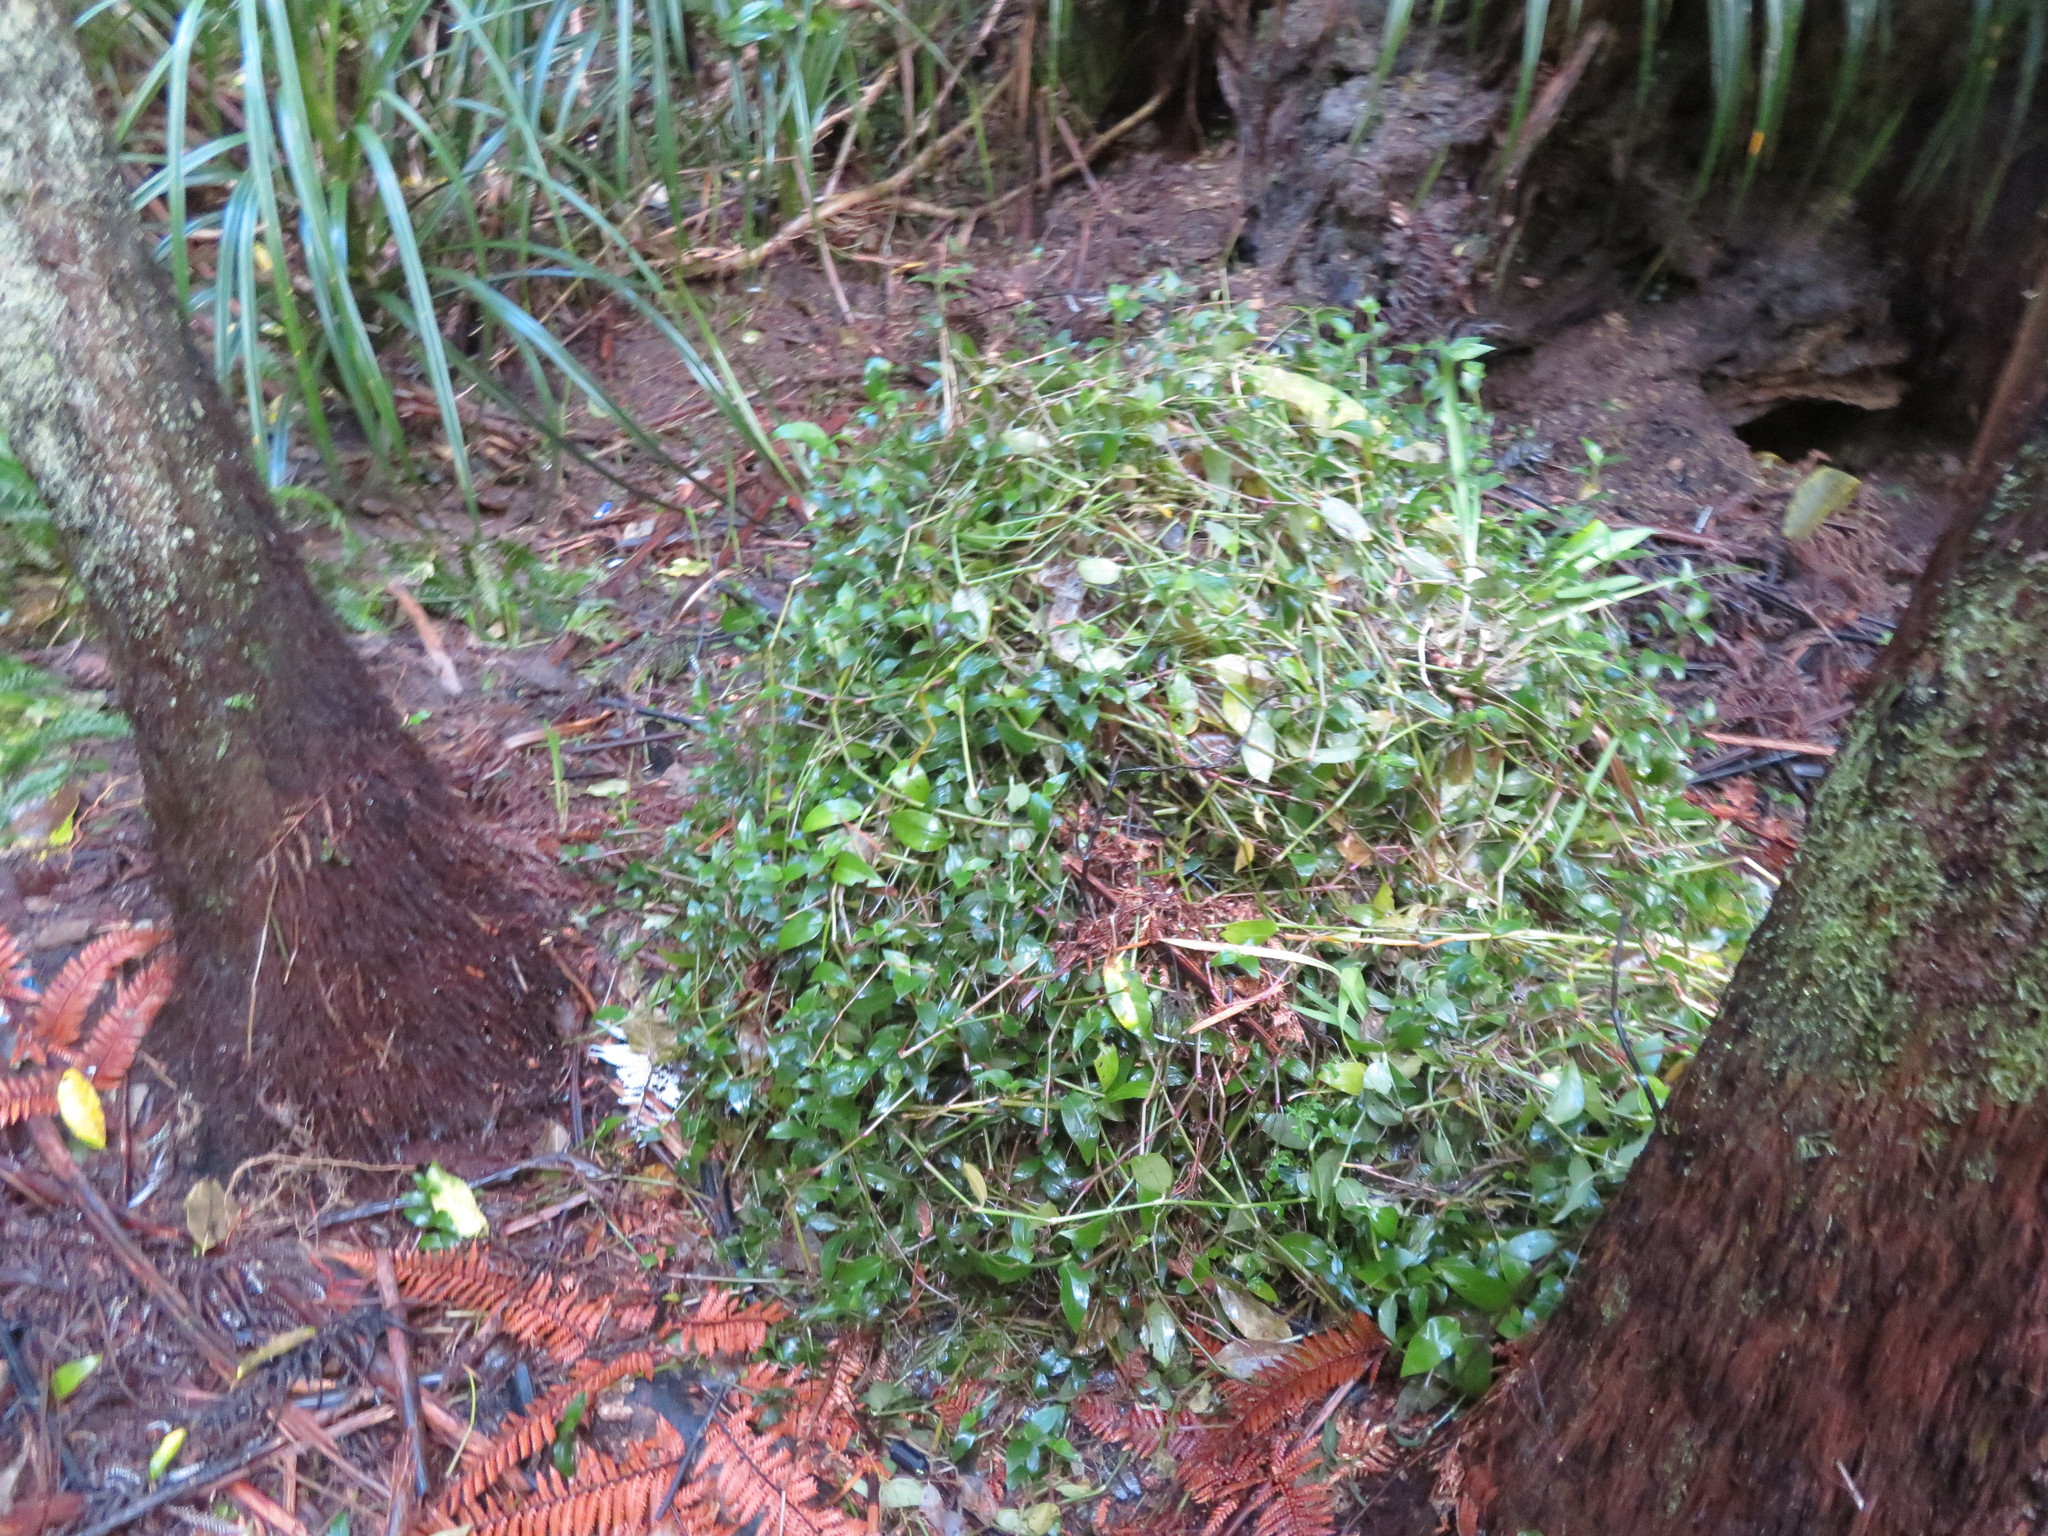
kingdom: Plantae
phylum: Tracheophyta
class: Liliopsida
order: Commelinales
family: Commelinaceae
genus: Tradescantia
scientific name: Tradescantia fluminensis
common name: Wandering-jew
